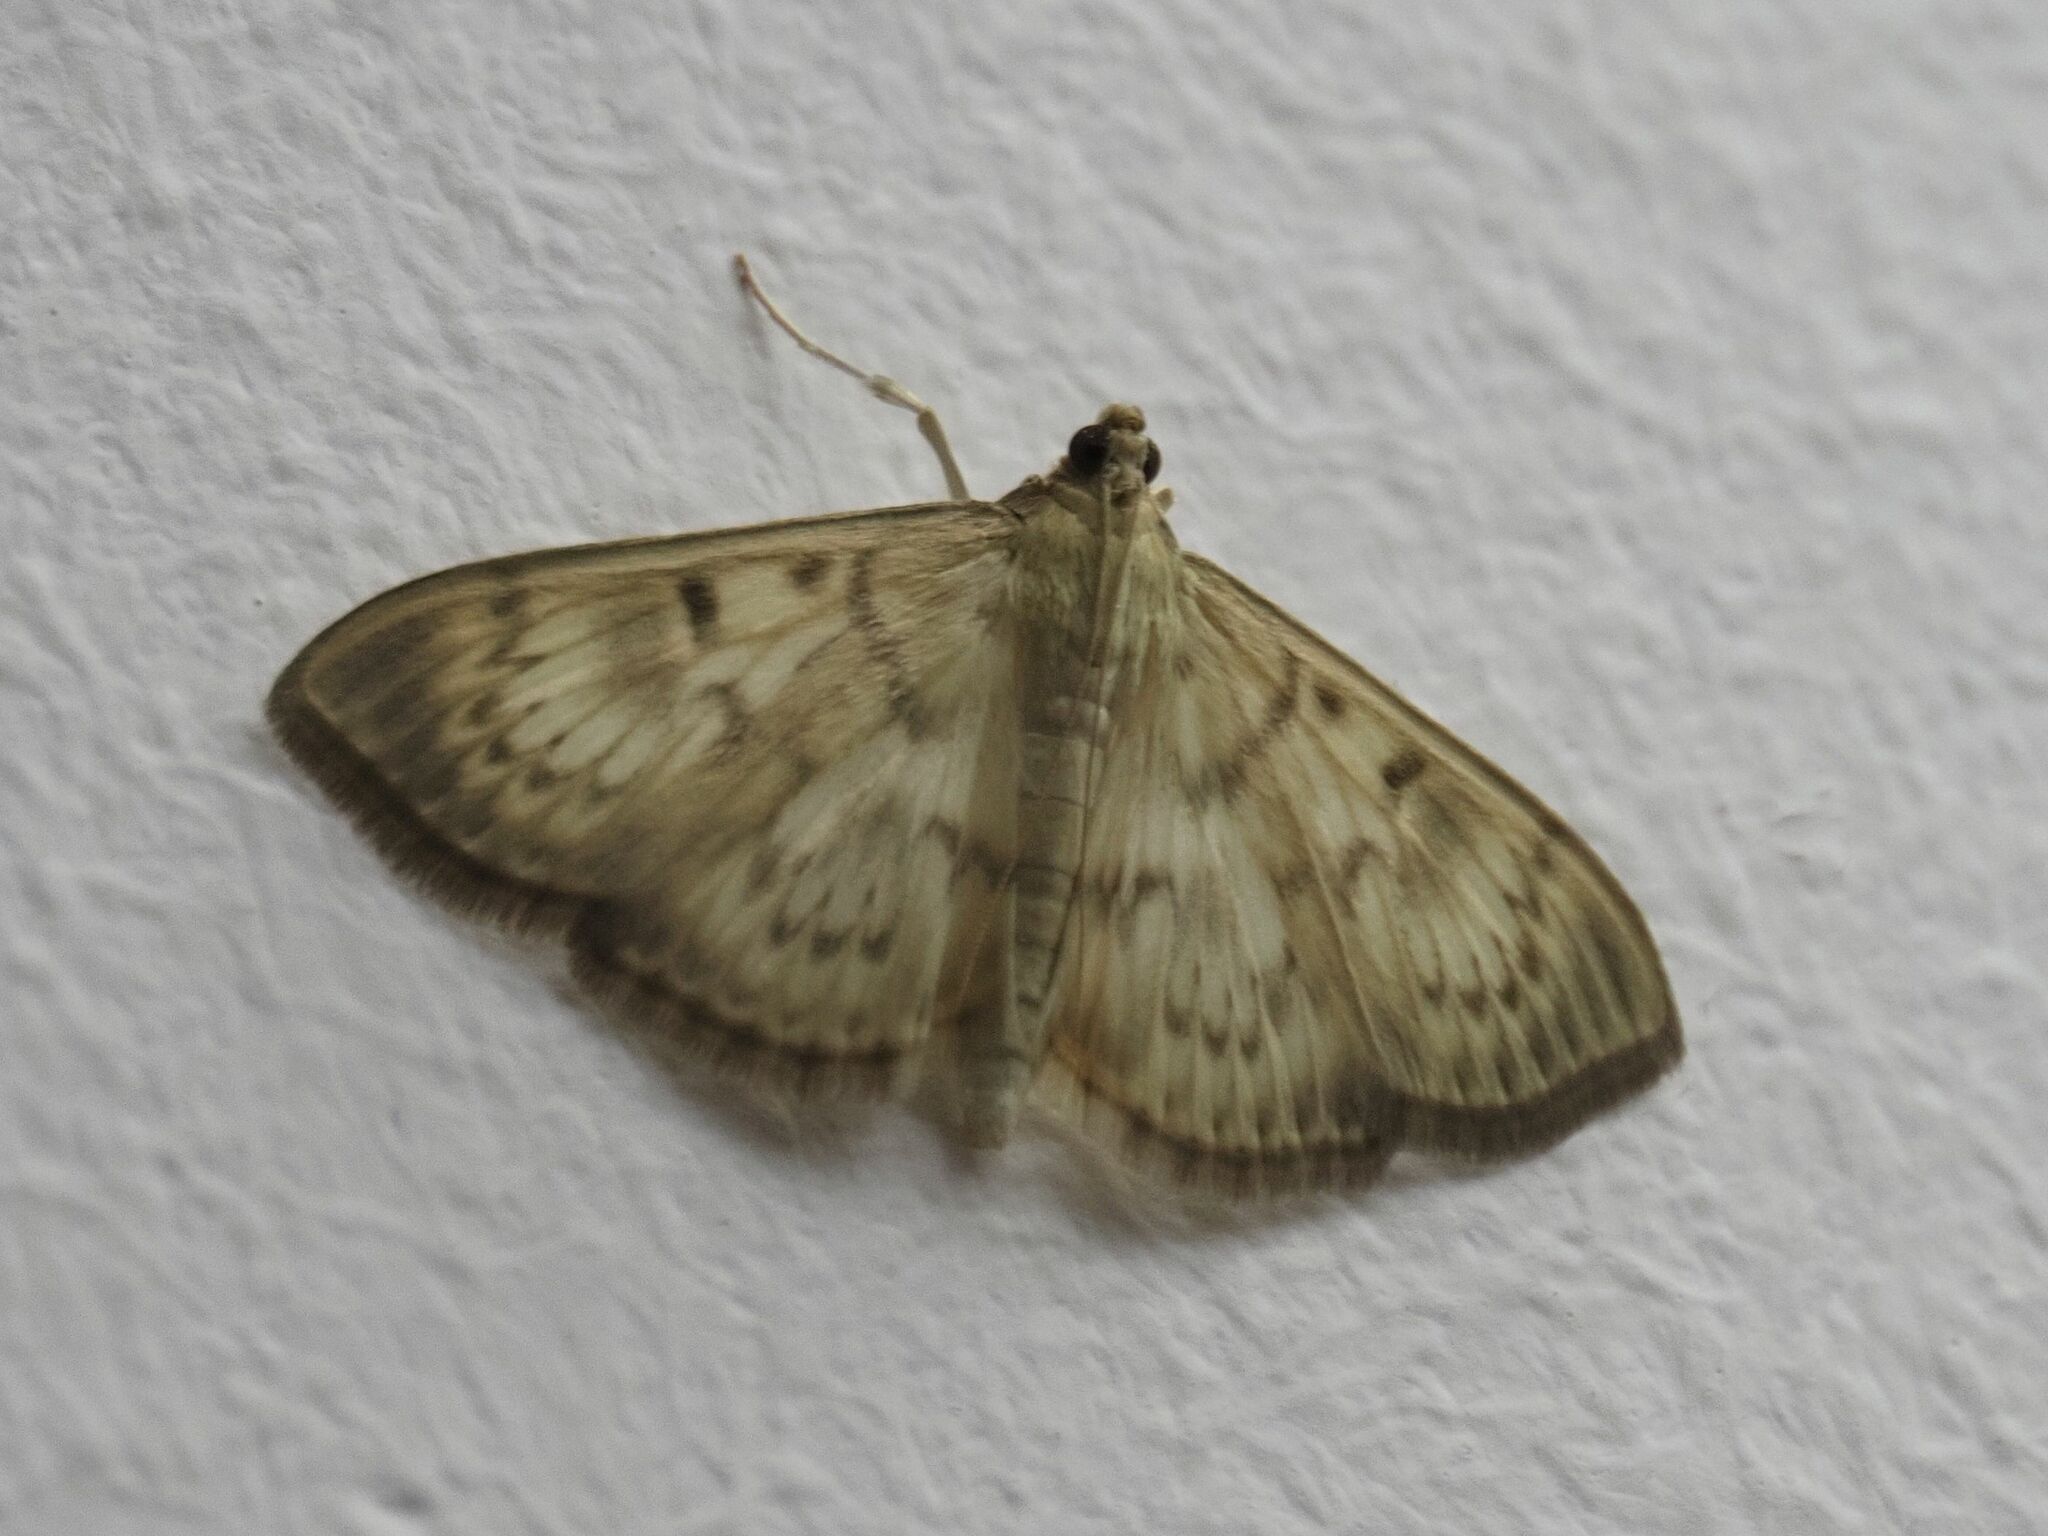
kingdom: Animalia
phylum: Arthropoda
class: Insecta
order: Lepidoptera
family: Crambidae
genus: Patania
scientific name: Patania ruralis
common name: Mother of pearl
